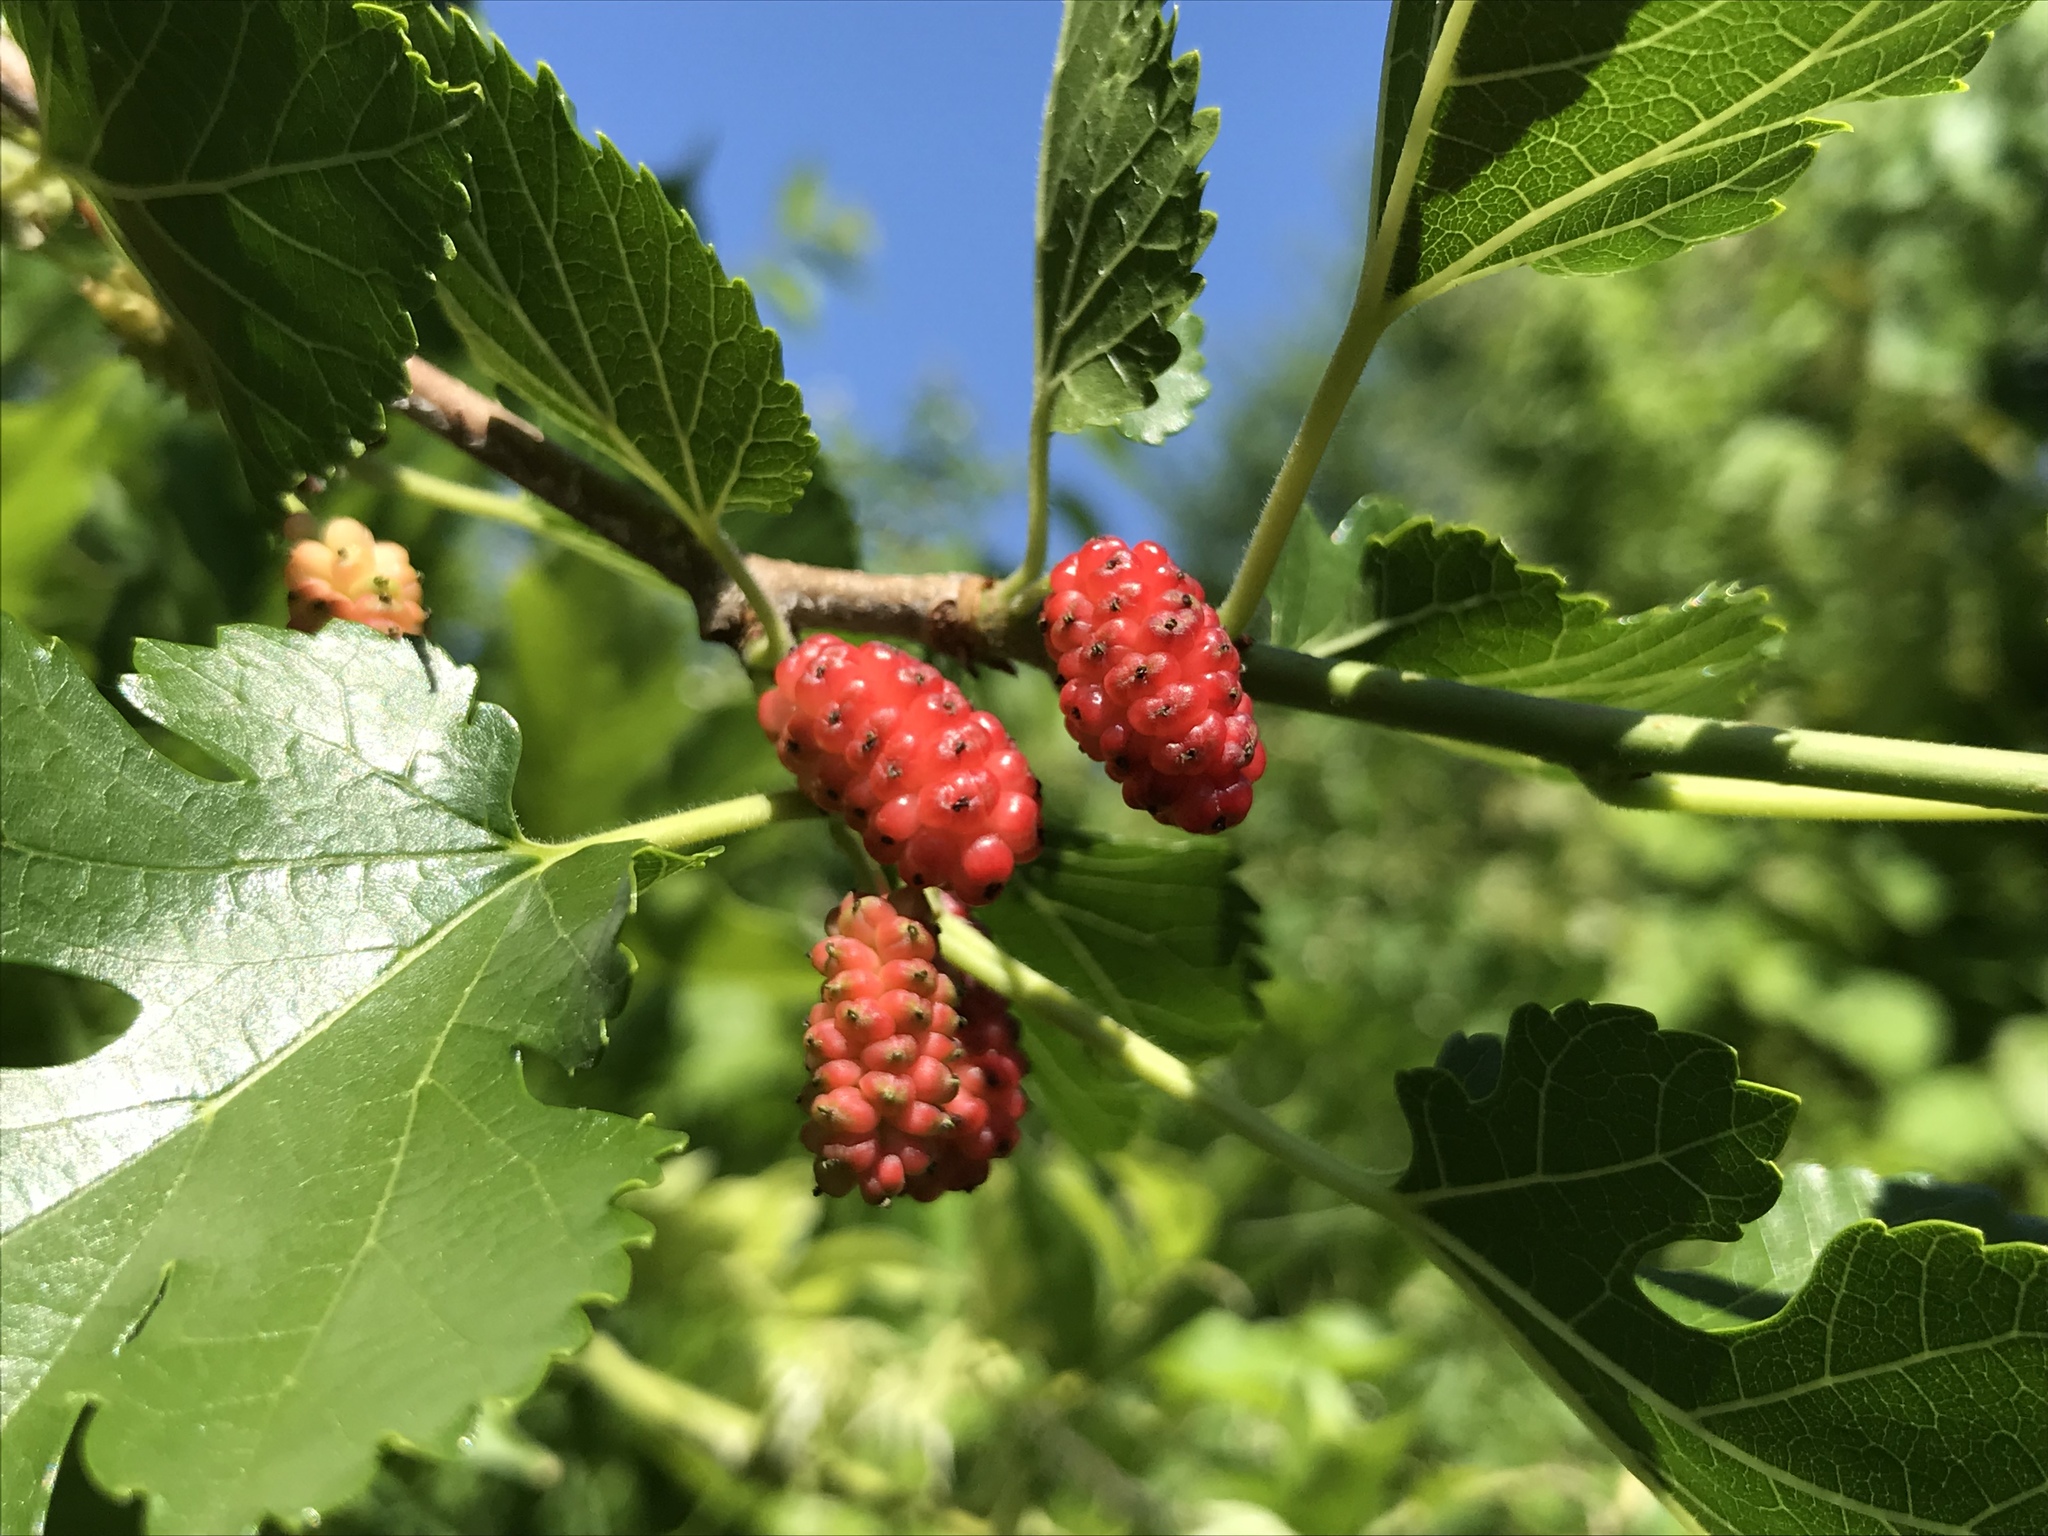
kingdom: Plantae
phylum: Tracheophyta
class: Magnoliopsida
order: Rosales
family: Moraceae
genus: Morus
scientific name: Morus alba
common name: White mulberry
